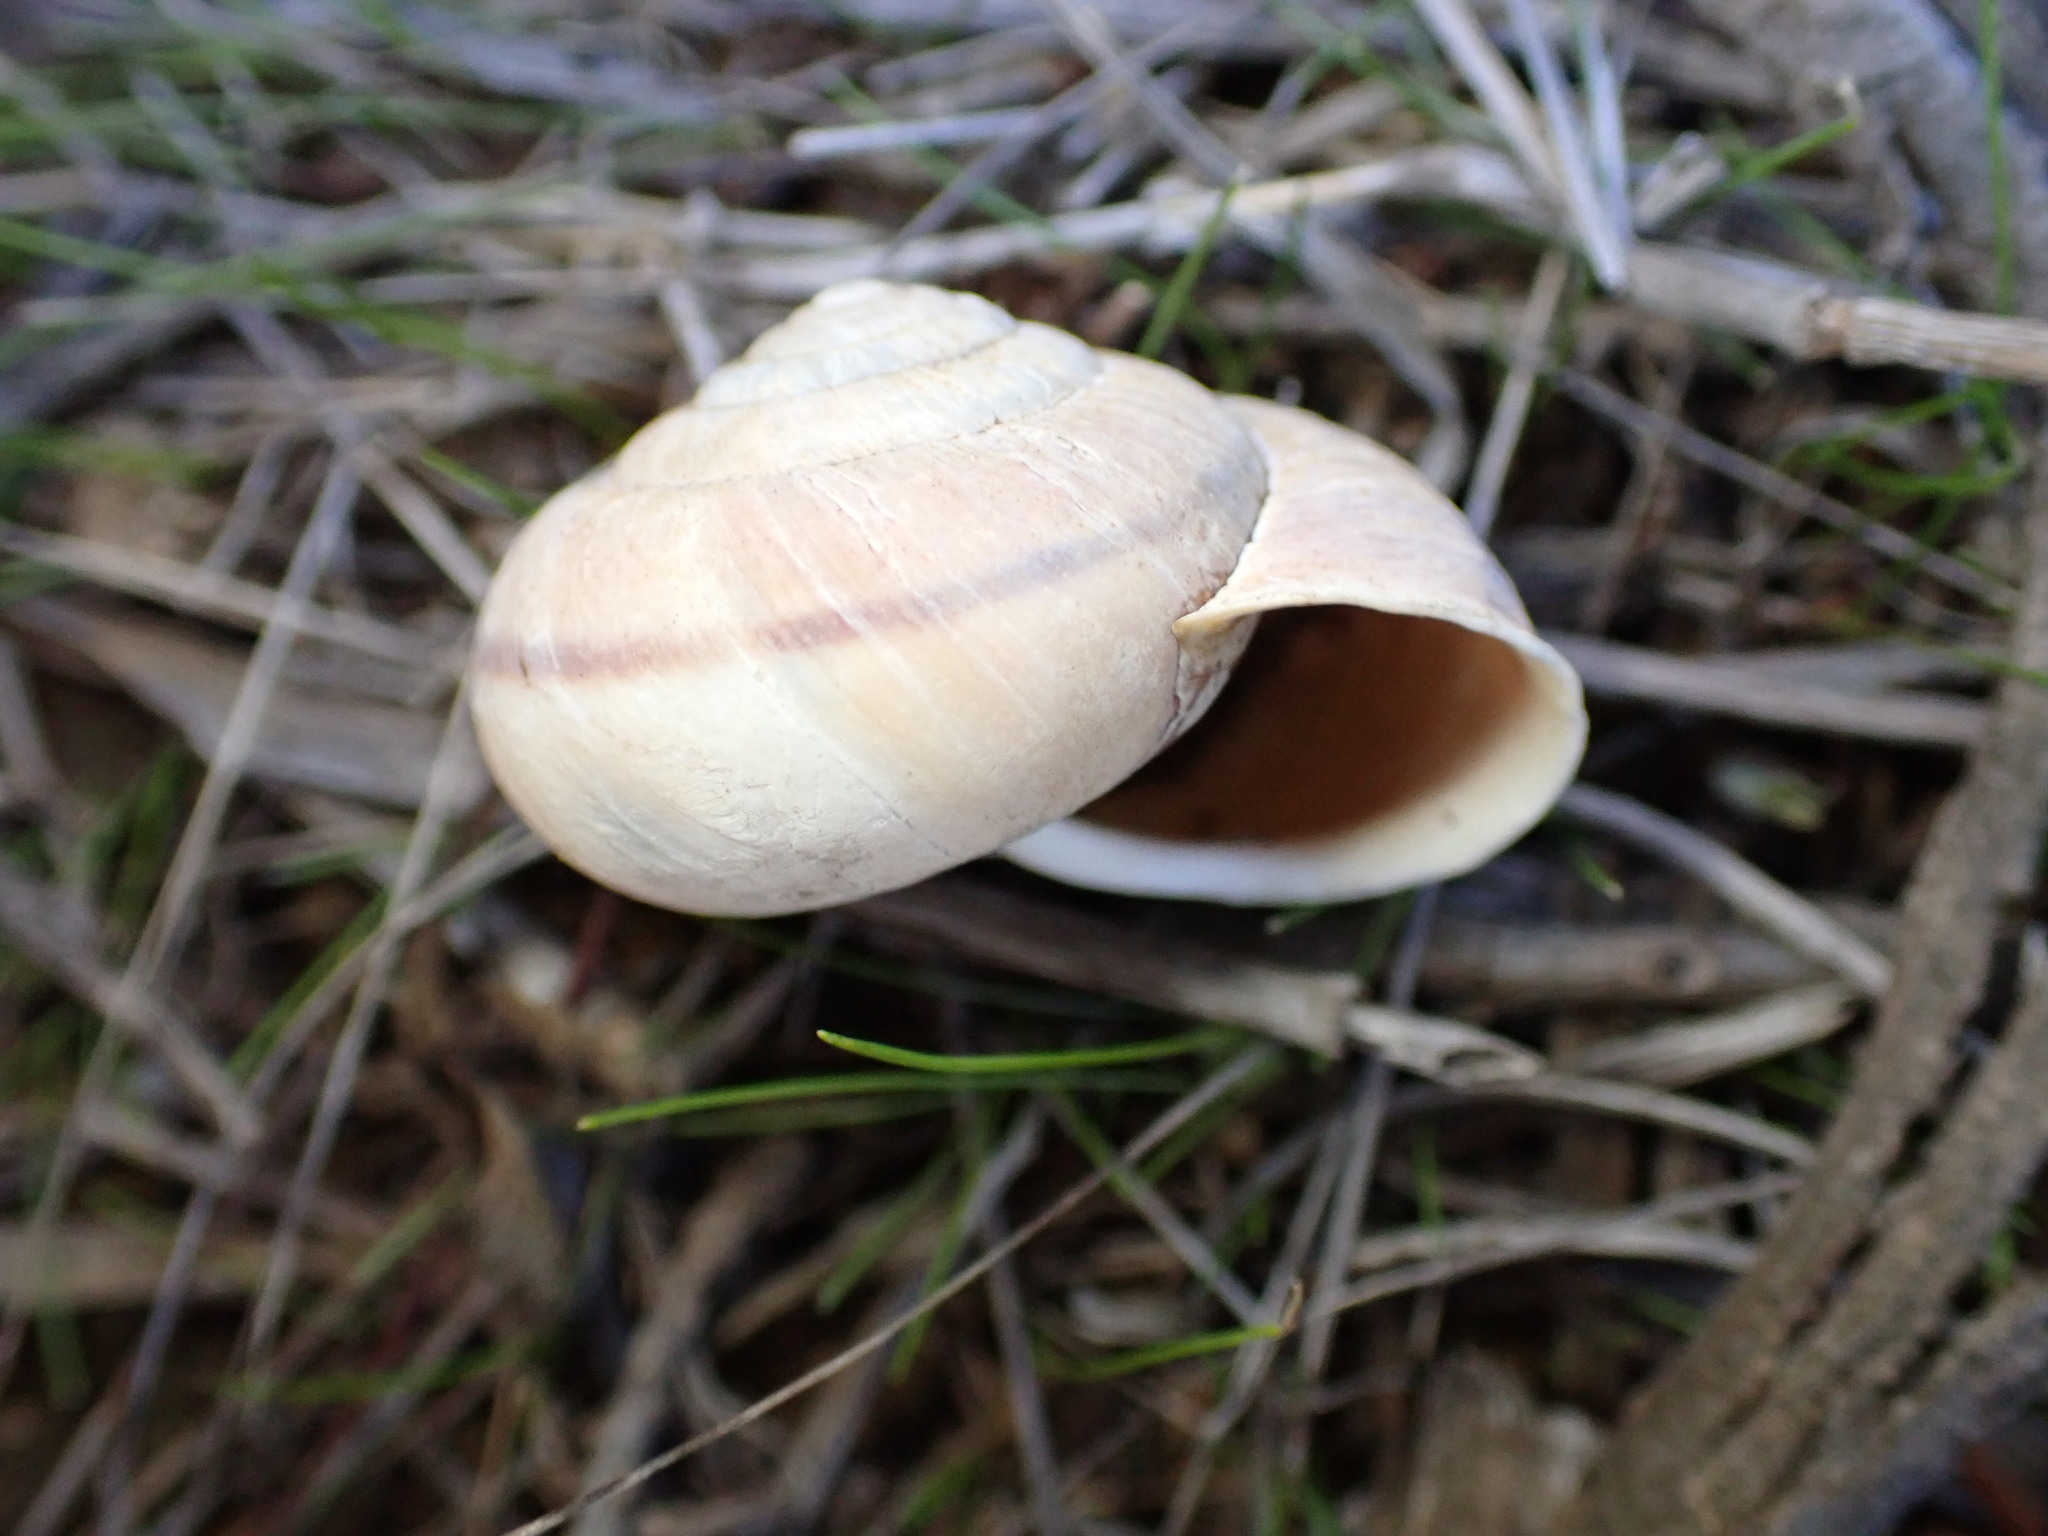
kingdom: Animalia
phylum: Mollusca
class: Gastropoda
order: Stylommatophora
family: Xanthonychidae
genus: Helminthoglypta
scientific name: Helminthoglypta arrosa
